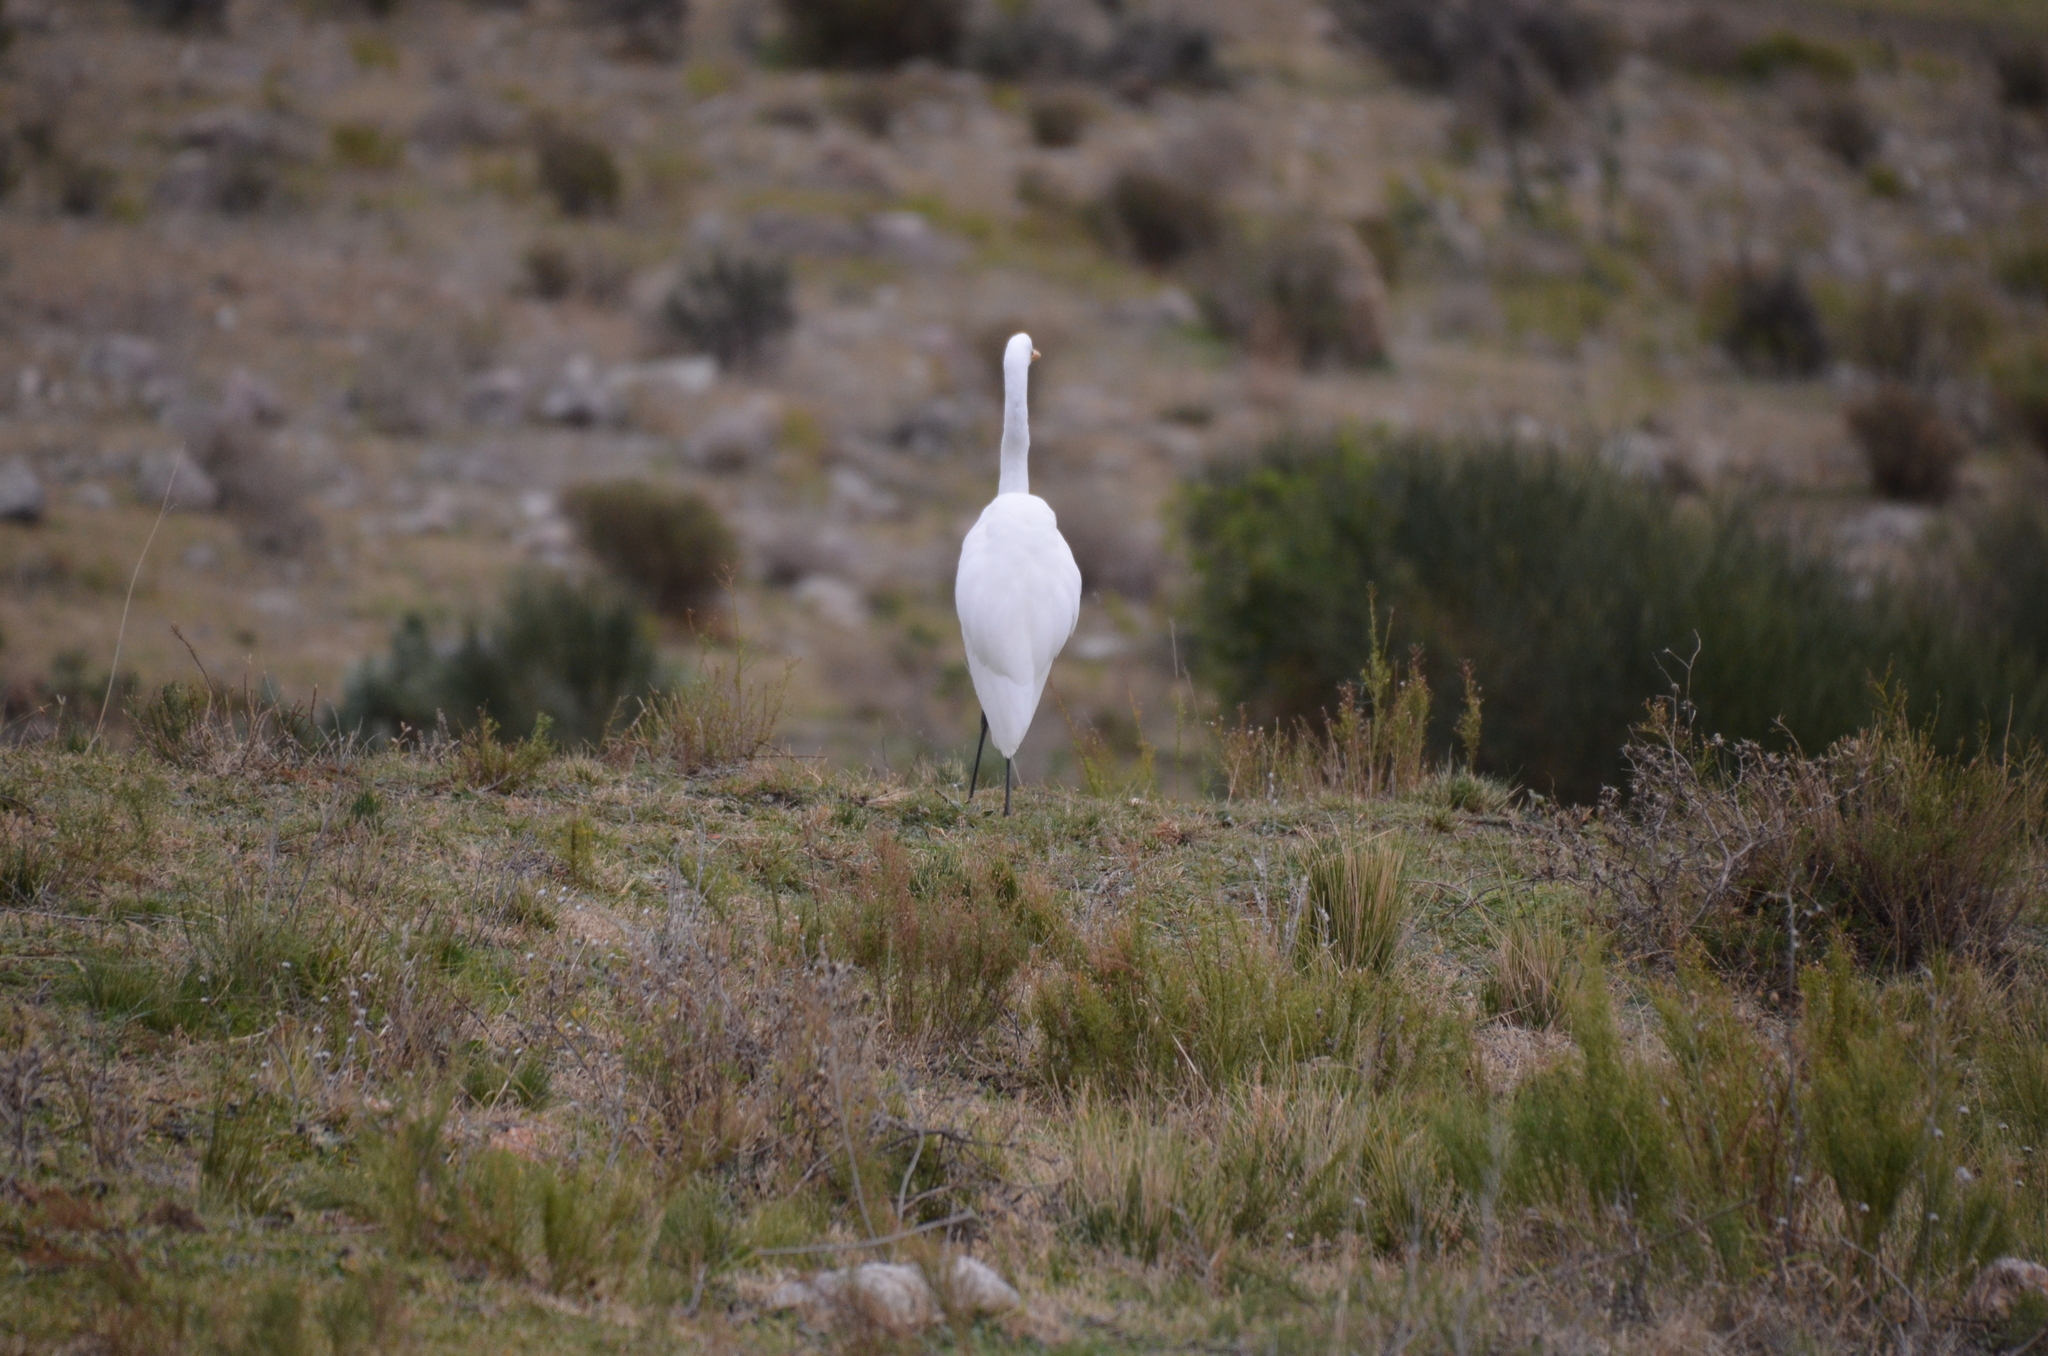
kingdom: Animalia
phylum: Chordata
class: Aves
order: Pelecaniformes
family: Ardeidae
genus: Ardea
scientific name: Ardea alba
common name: Great egret
